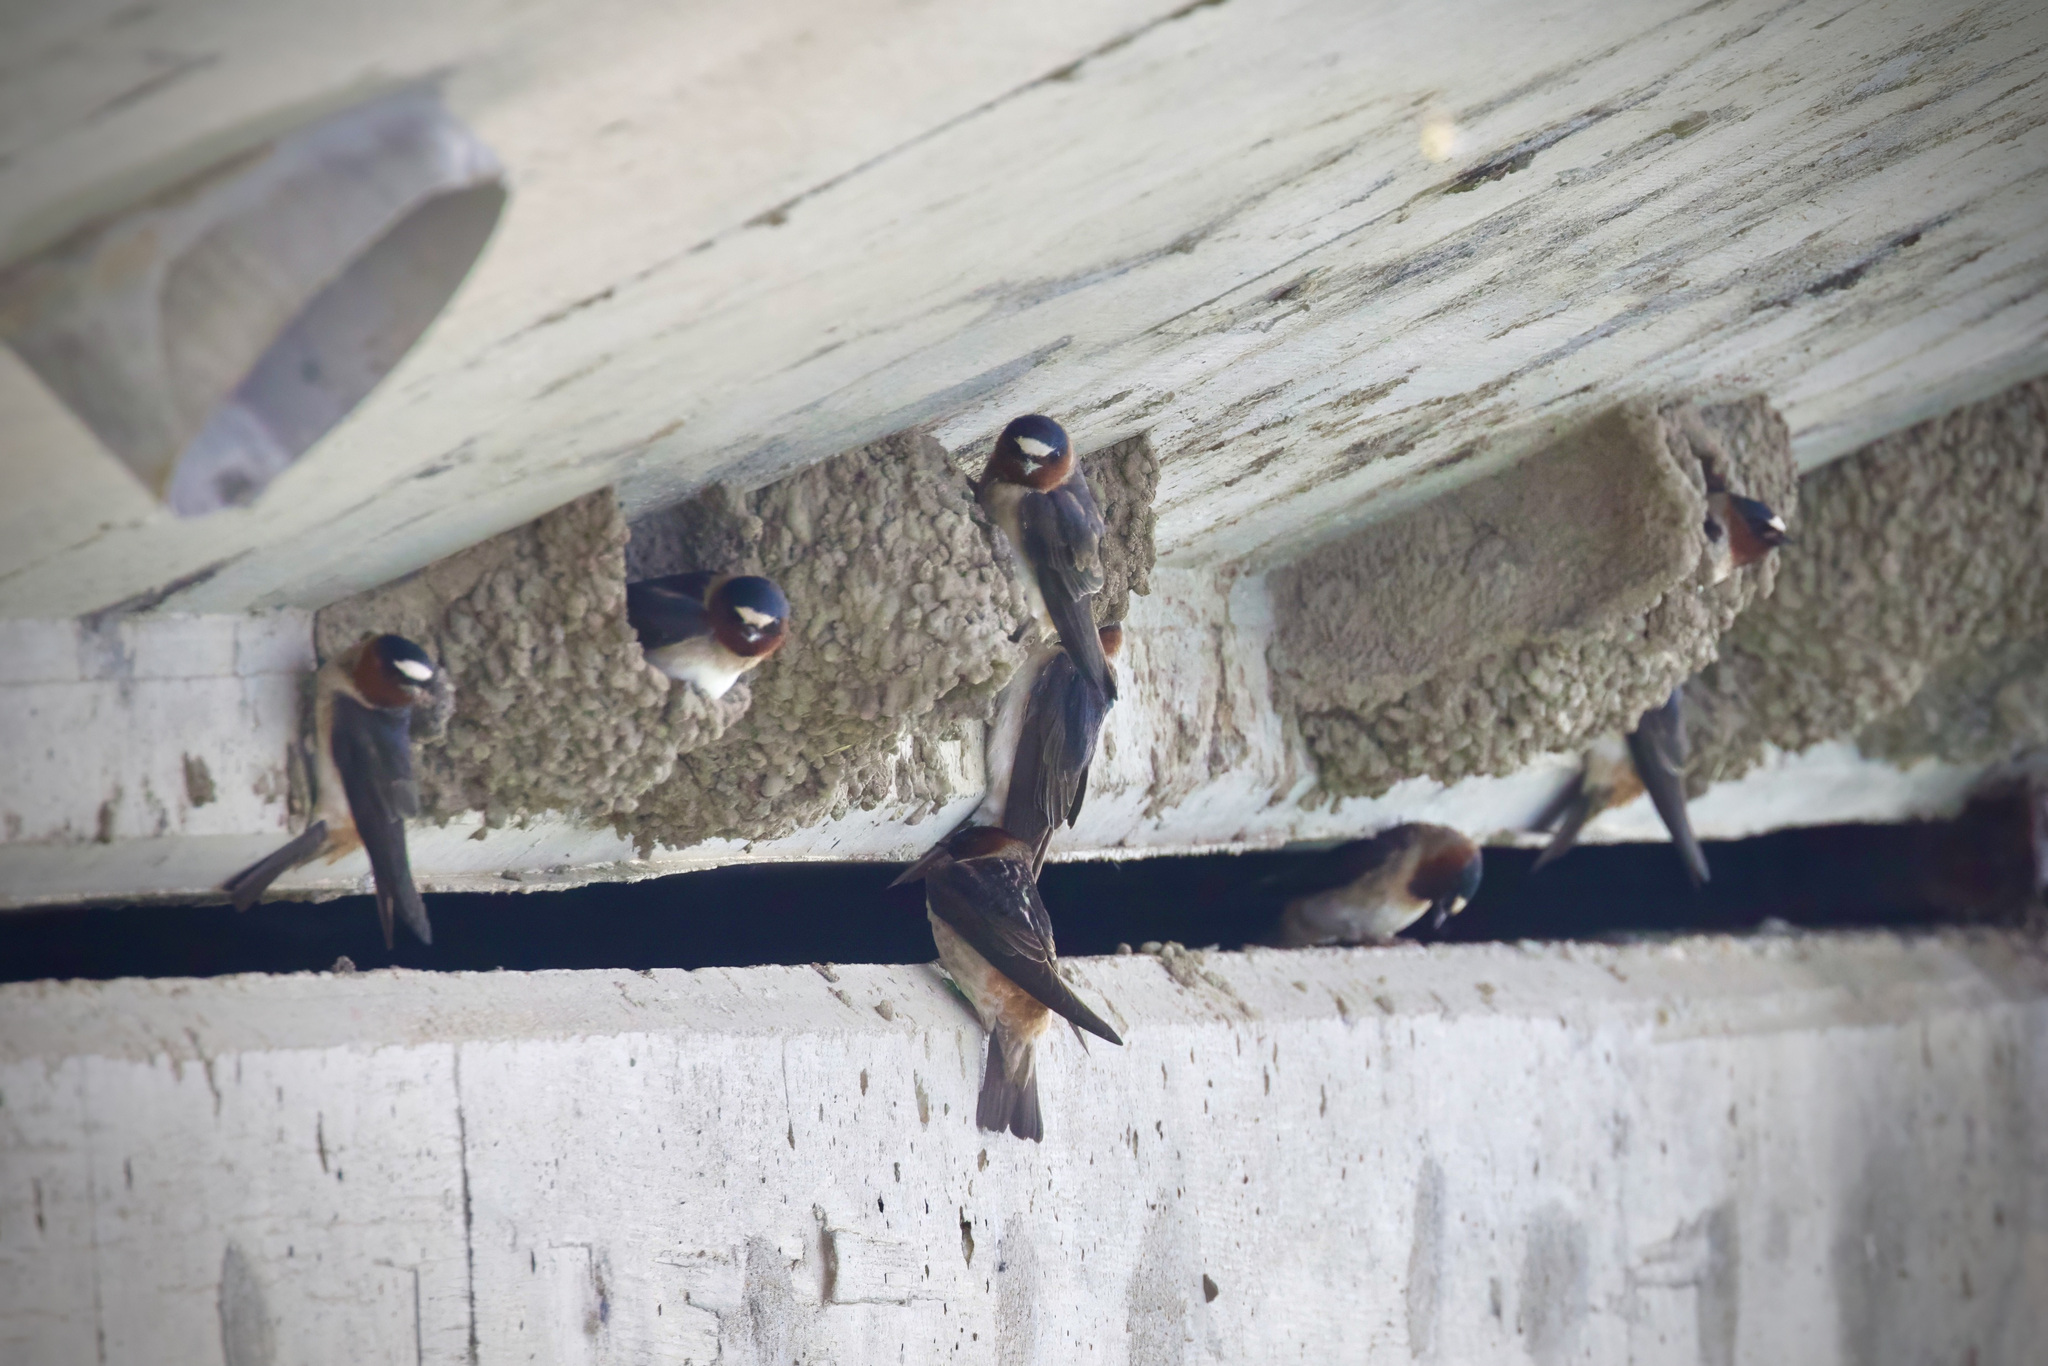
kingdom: Animalia
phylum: Chordata
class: Aves
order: Passeriformes
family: Hirundinidae
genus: Petrochelidon
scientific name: Petrochelidon pyrrhonota
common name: American cliff swallow
